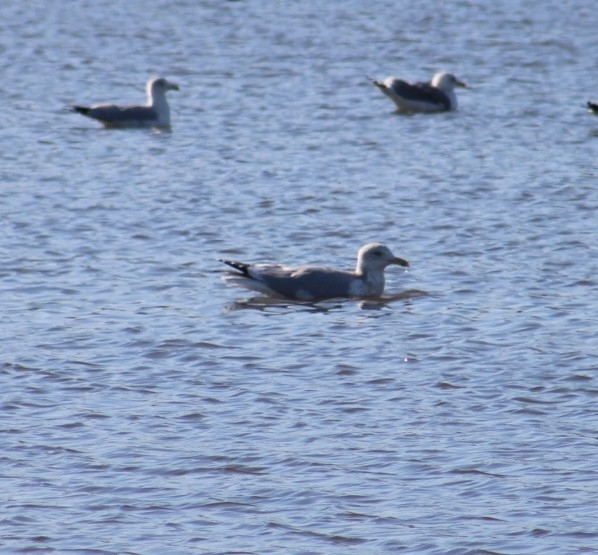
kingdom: Animalia
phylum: Chordata
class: Aves
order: Charadriiformes
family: Laridae
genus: Larus
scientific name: Larus californicus
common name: California gull
